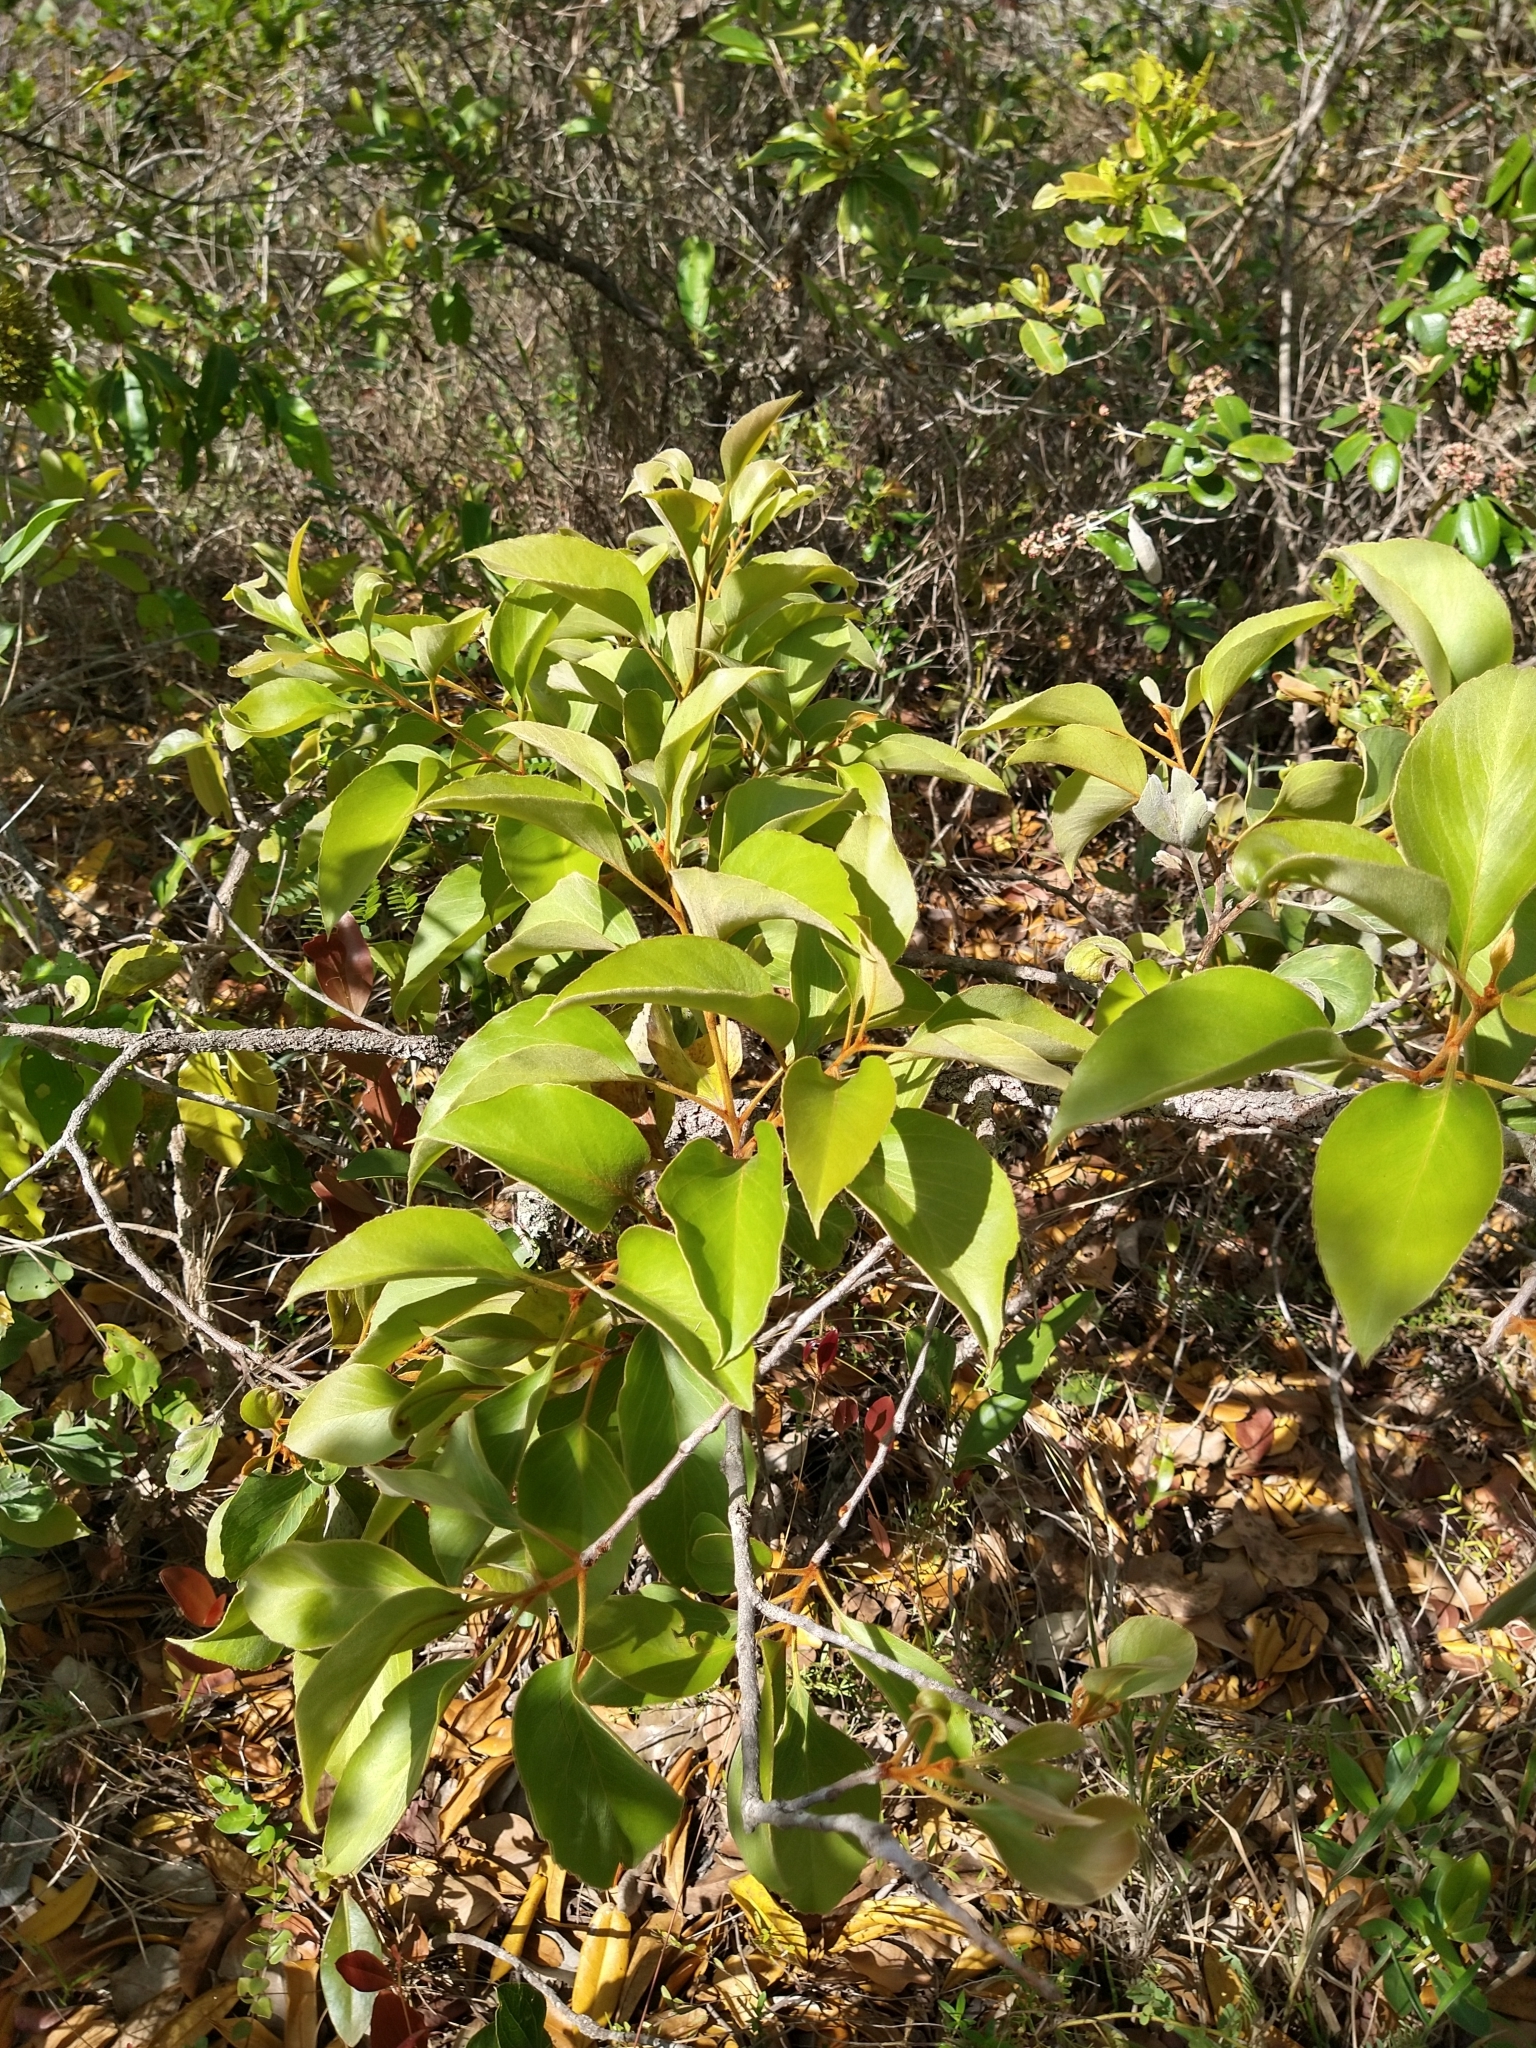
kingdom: Plantae
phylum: Tracheophyta
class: Magnoliopsida
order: Proteales
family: Proteaceae
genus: Roupala
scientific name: Roupala montana
